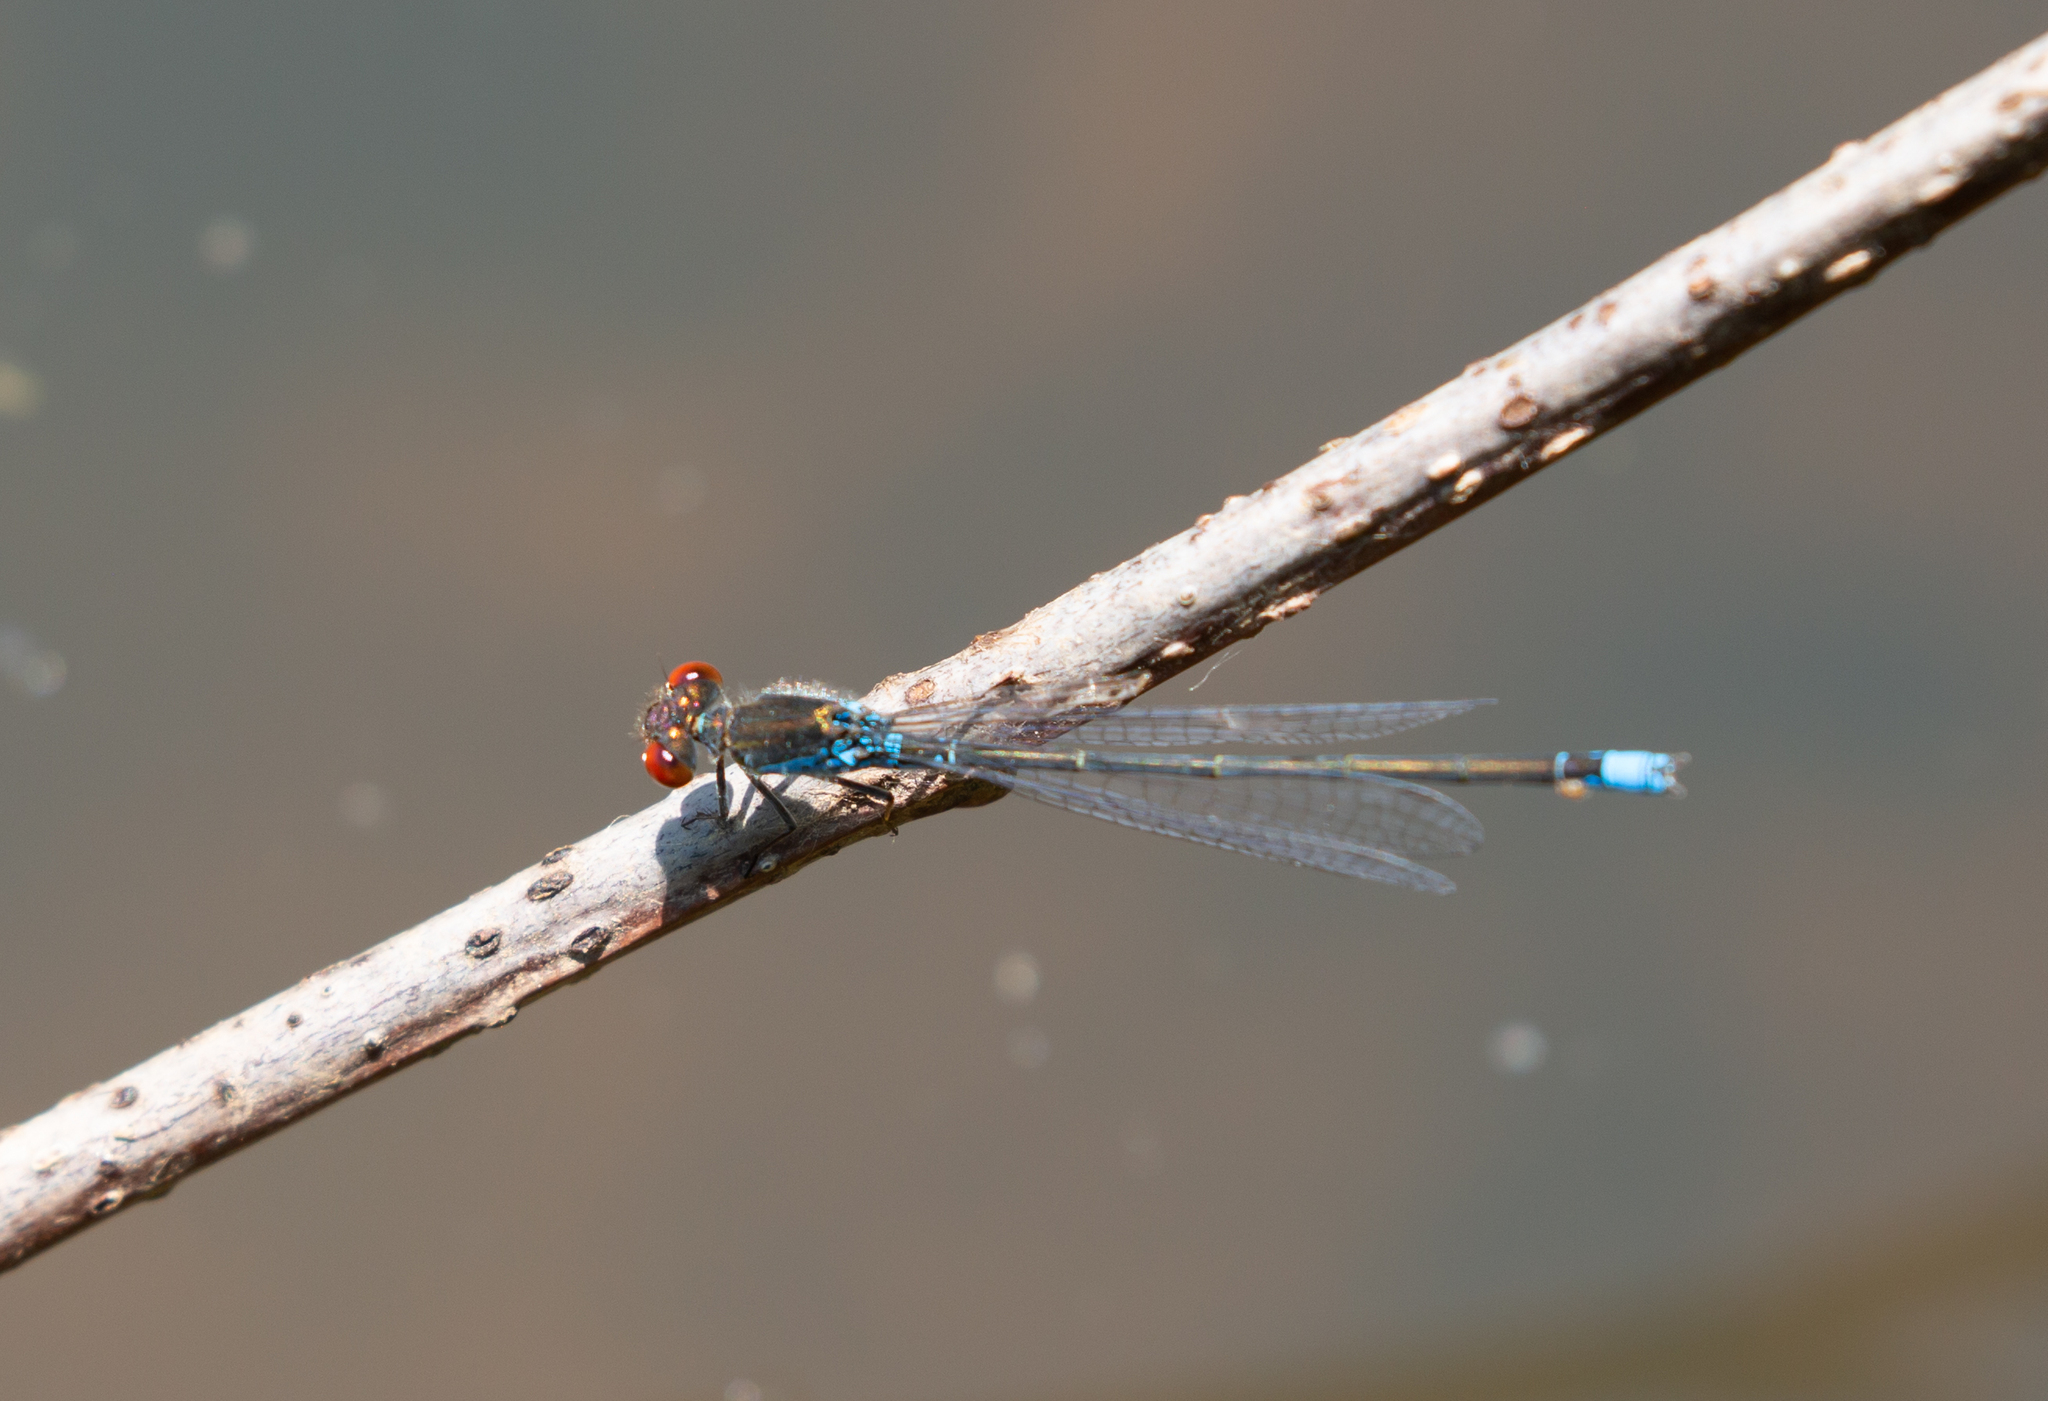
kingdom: Animalia
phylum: Arthropoda
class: Insecta
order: Odonata
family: Coenagrionidae
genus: Erythromma
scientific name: Erythromma viridulum
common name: Small red-eyed damselfly
